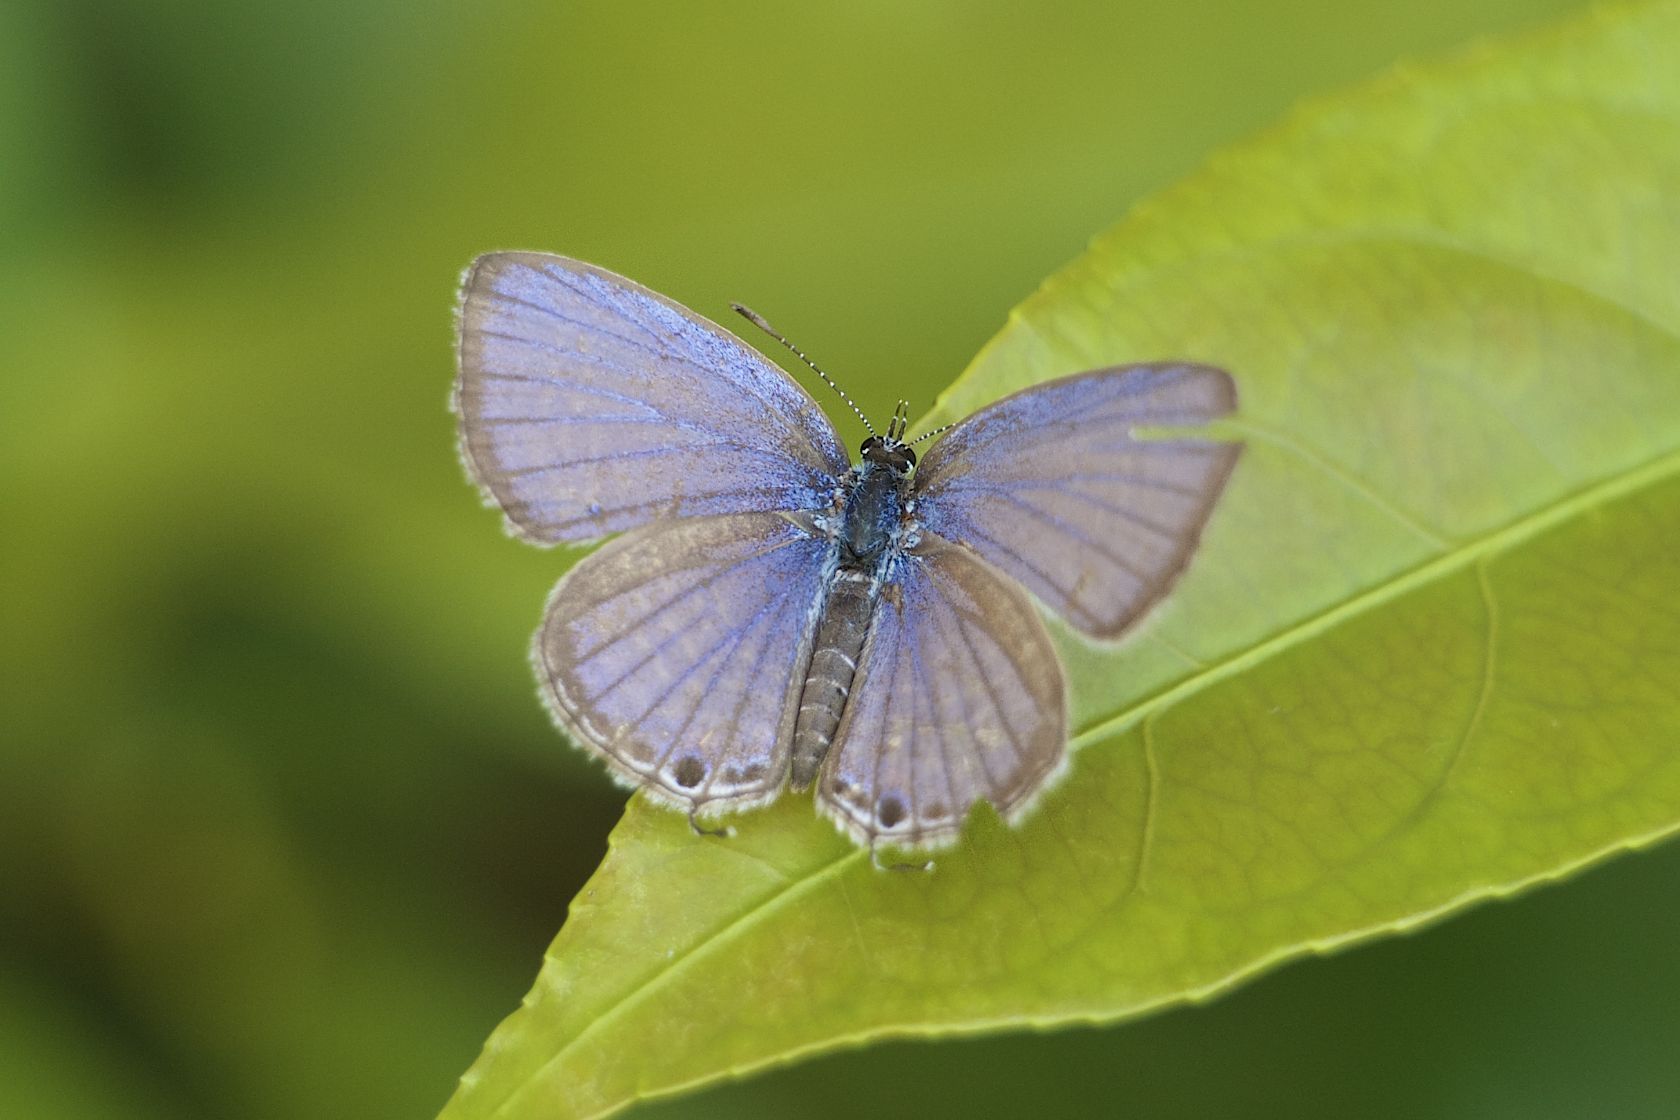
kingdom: Animalia
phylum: Arthropoda
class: Insecta
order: Lepidoptera
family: Lycaenidae
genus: Luthrodes
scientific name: Luthrodes pandava
